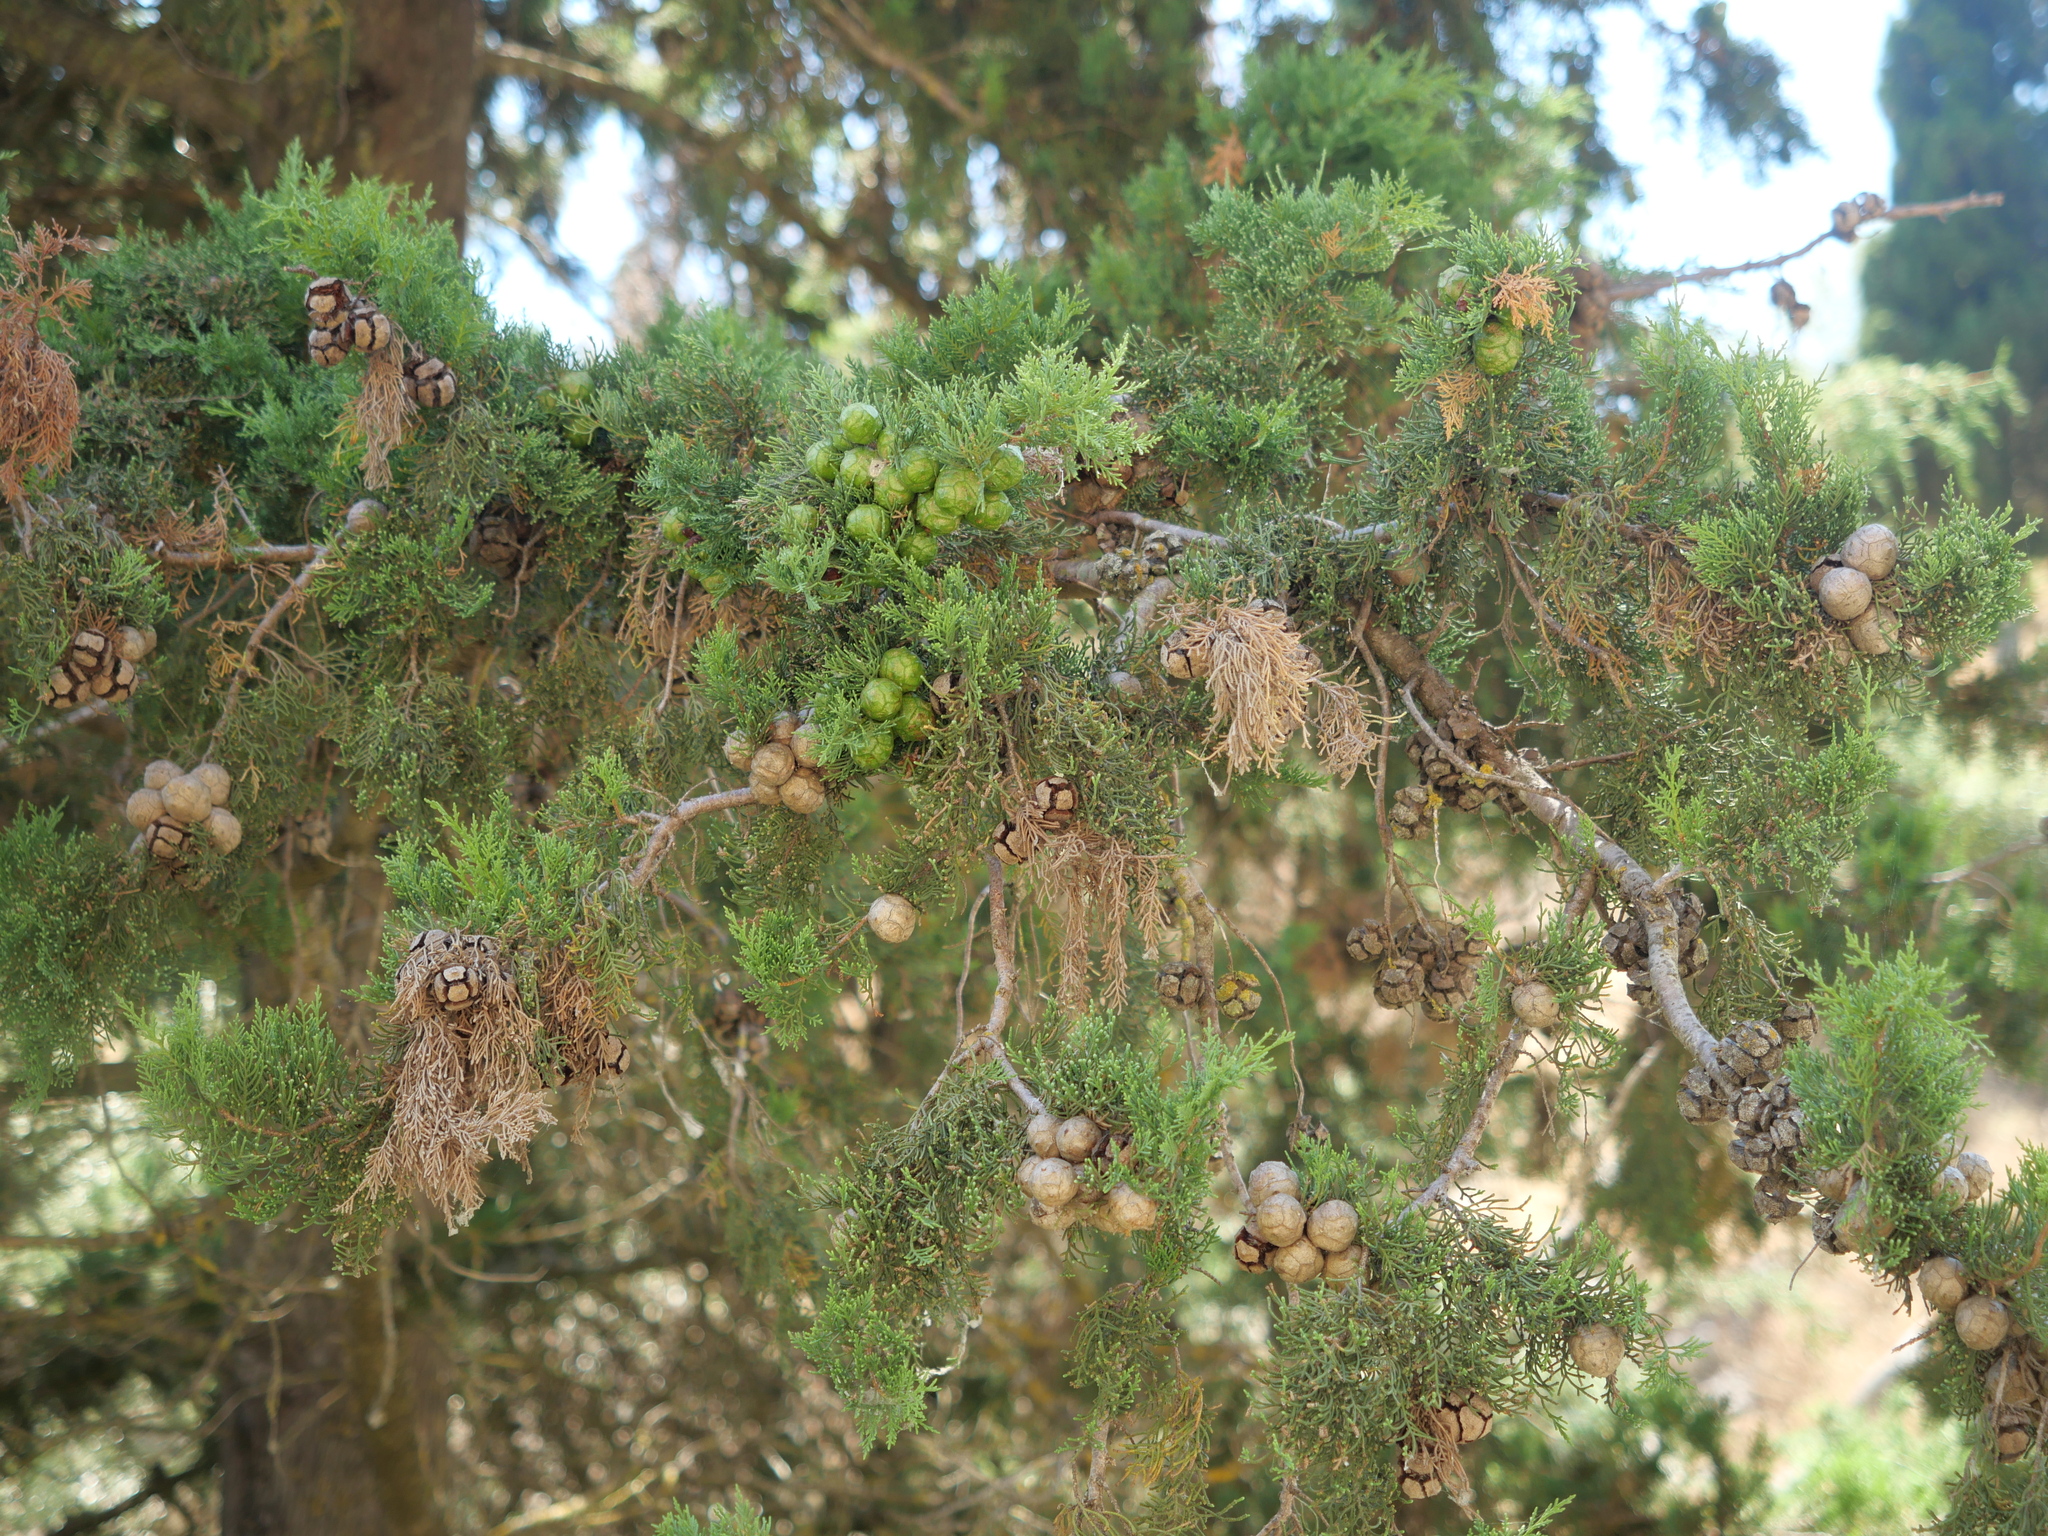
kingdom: Plantae
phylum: Tracheophyta
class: Pinopsida
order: Pinales
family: Cupressaceae
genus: Cupressus
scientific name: Cupressus sempervirens
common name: Italian cypress
